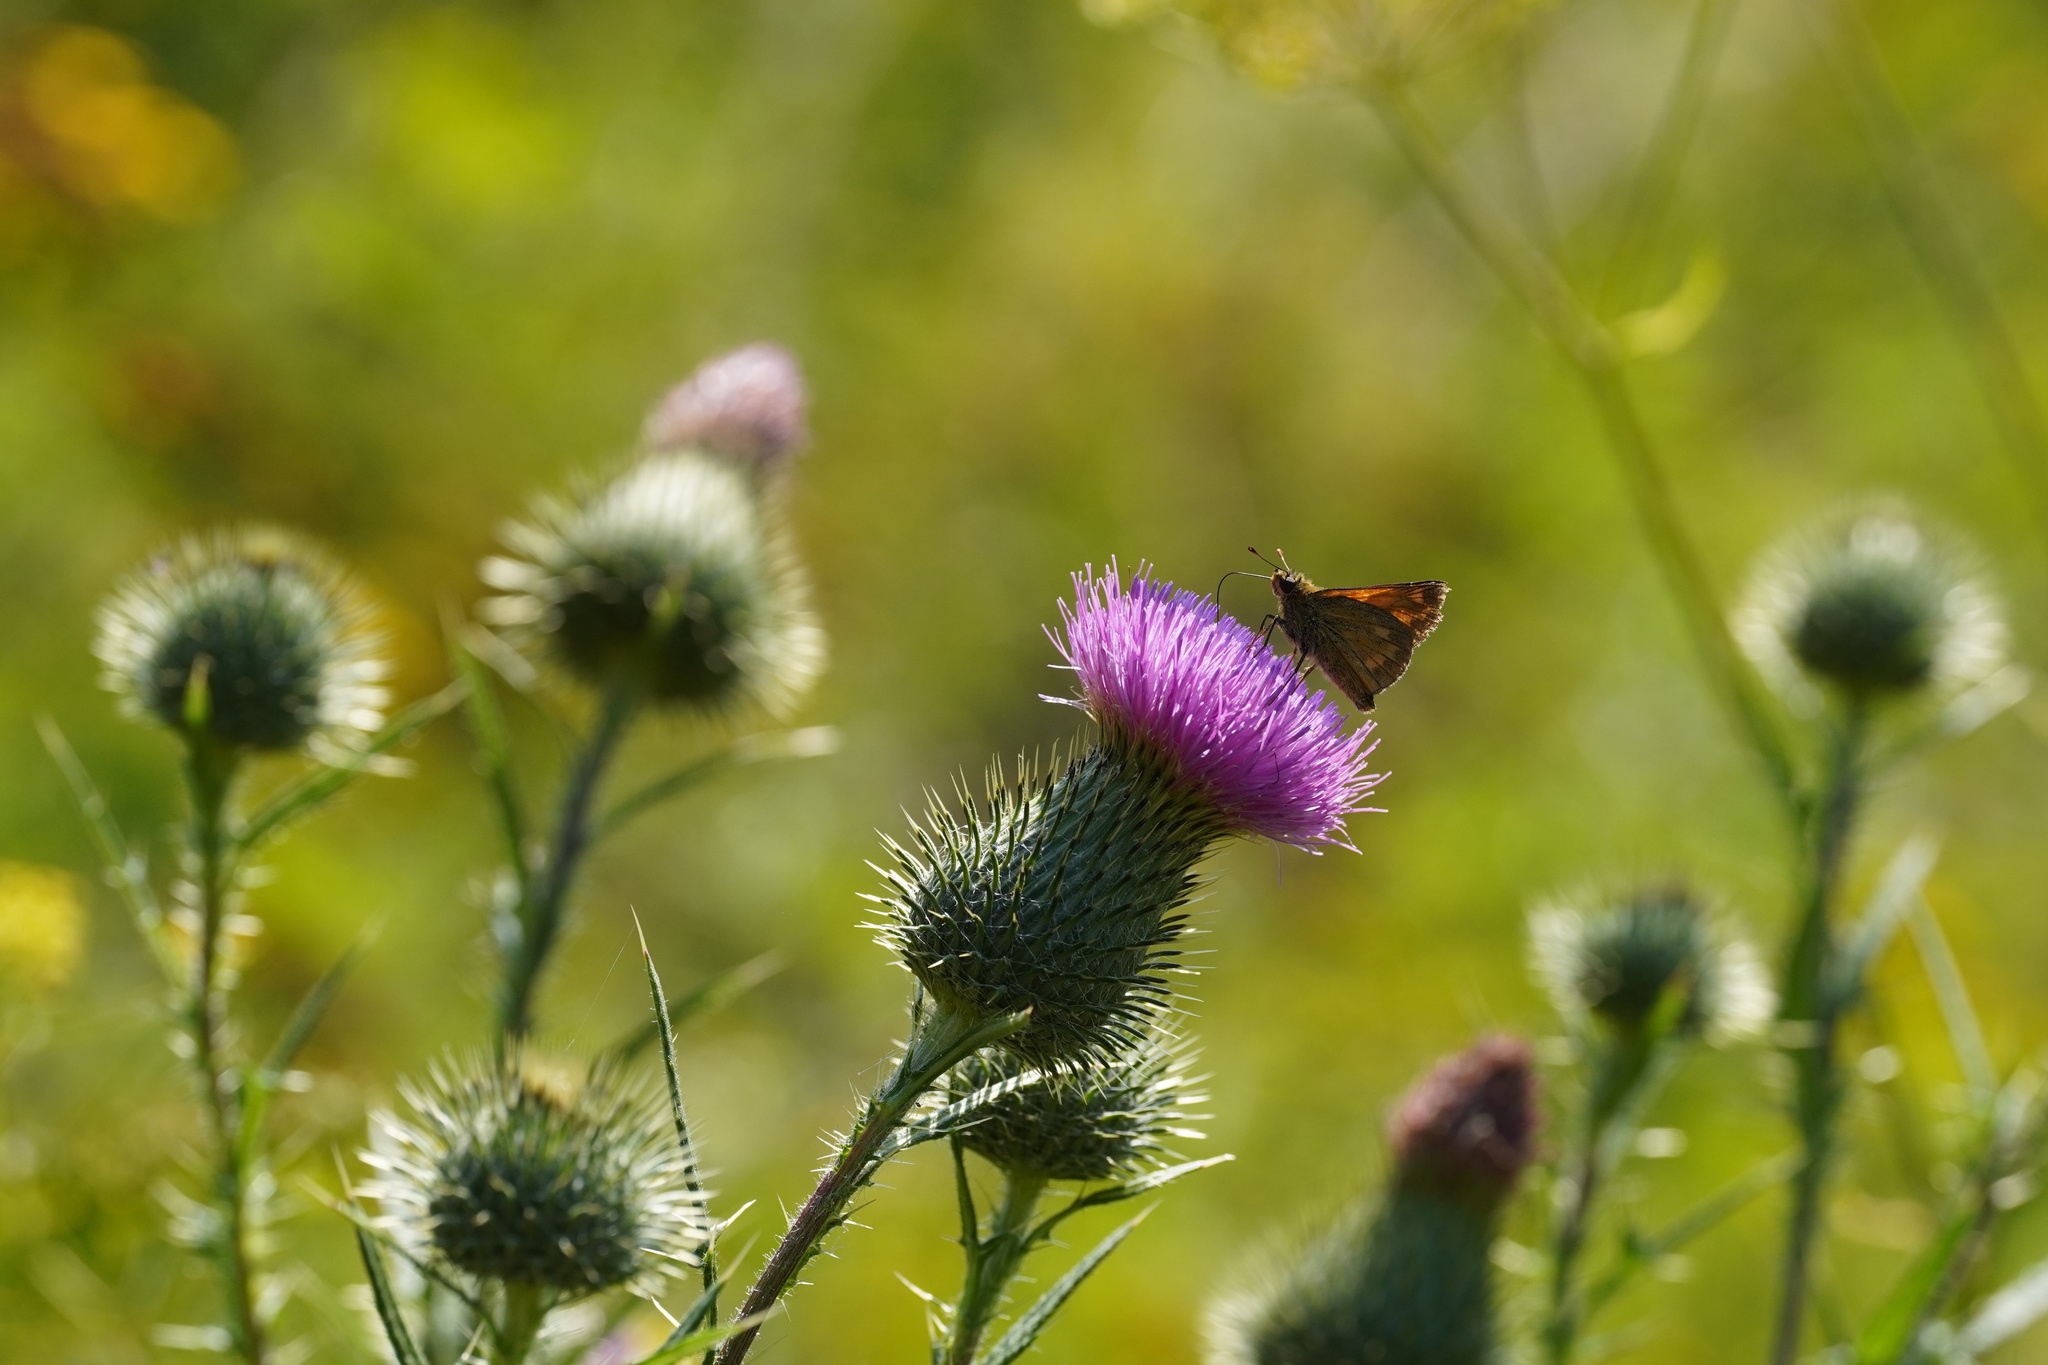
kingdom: Animalia
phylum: Arthropoda
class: Insecta
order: Lepidoptera
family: Hesperiidae
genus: Ochlodes
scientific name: Ochlodes venata
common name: Large skipper
